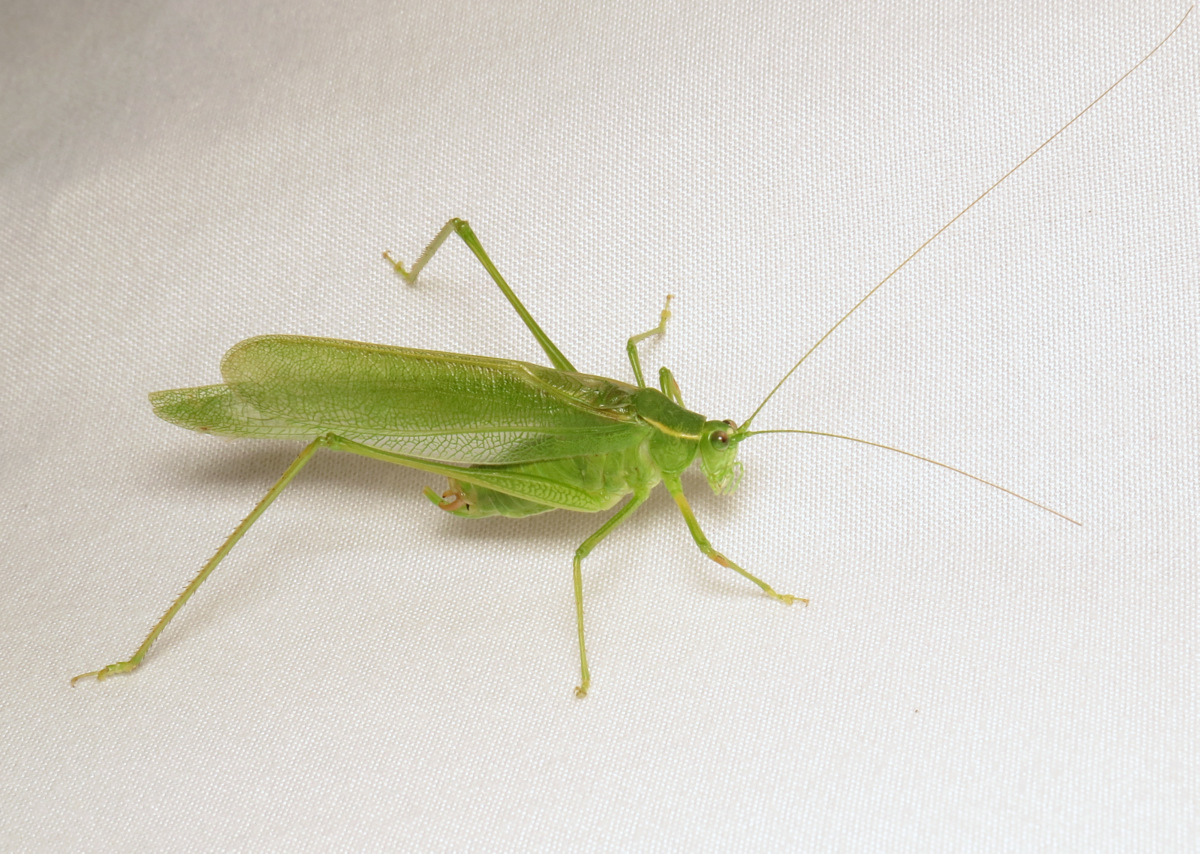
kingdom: Animalia
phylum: Arthropoda
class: Insecta
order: Orthoptera
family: Tettigoniidae
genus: Scudderia
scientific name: Scudderia septentrionalis
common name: Northern bush-katydid
